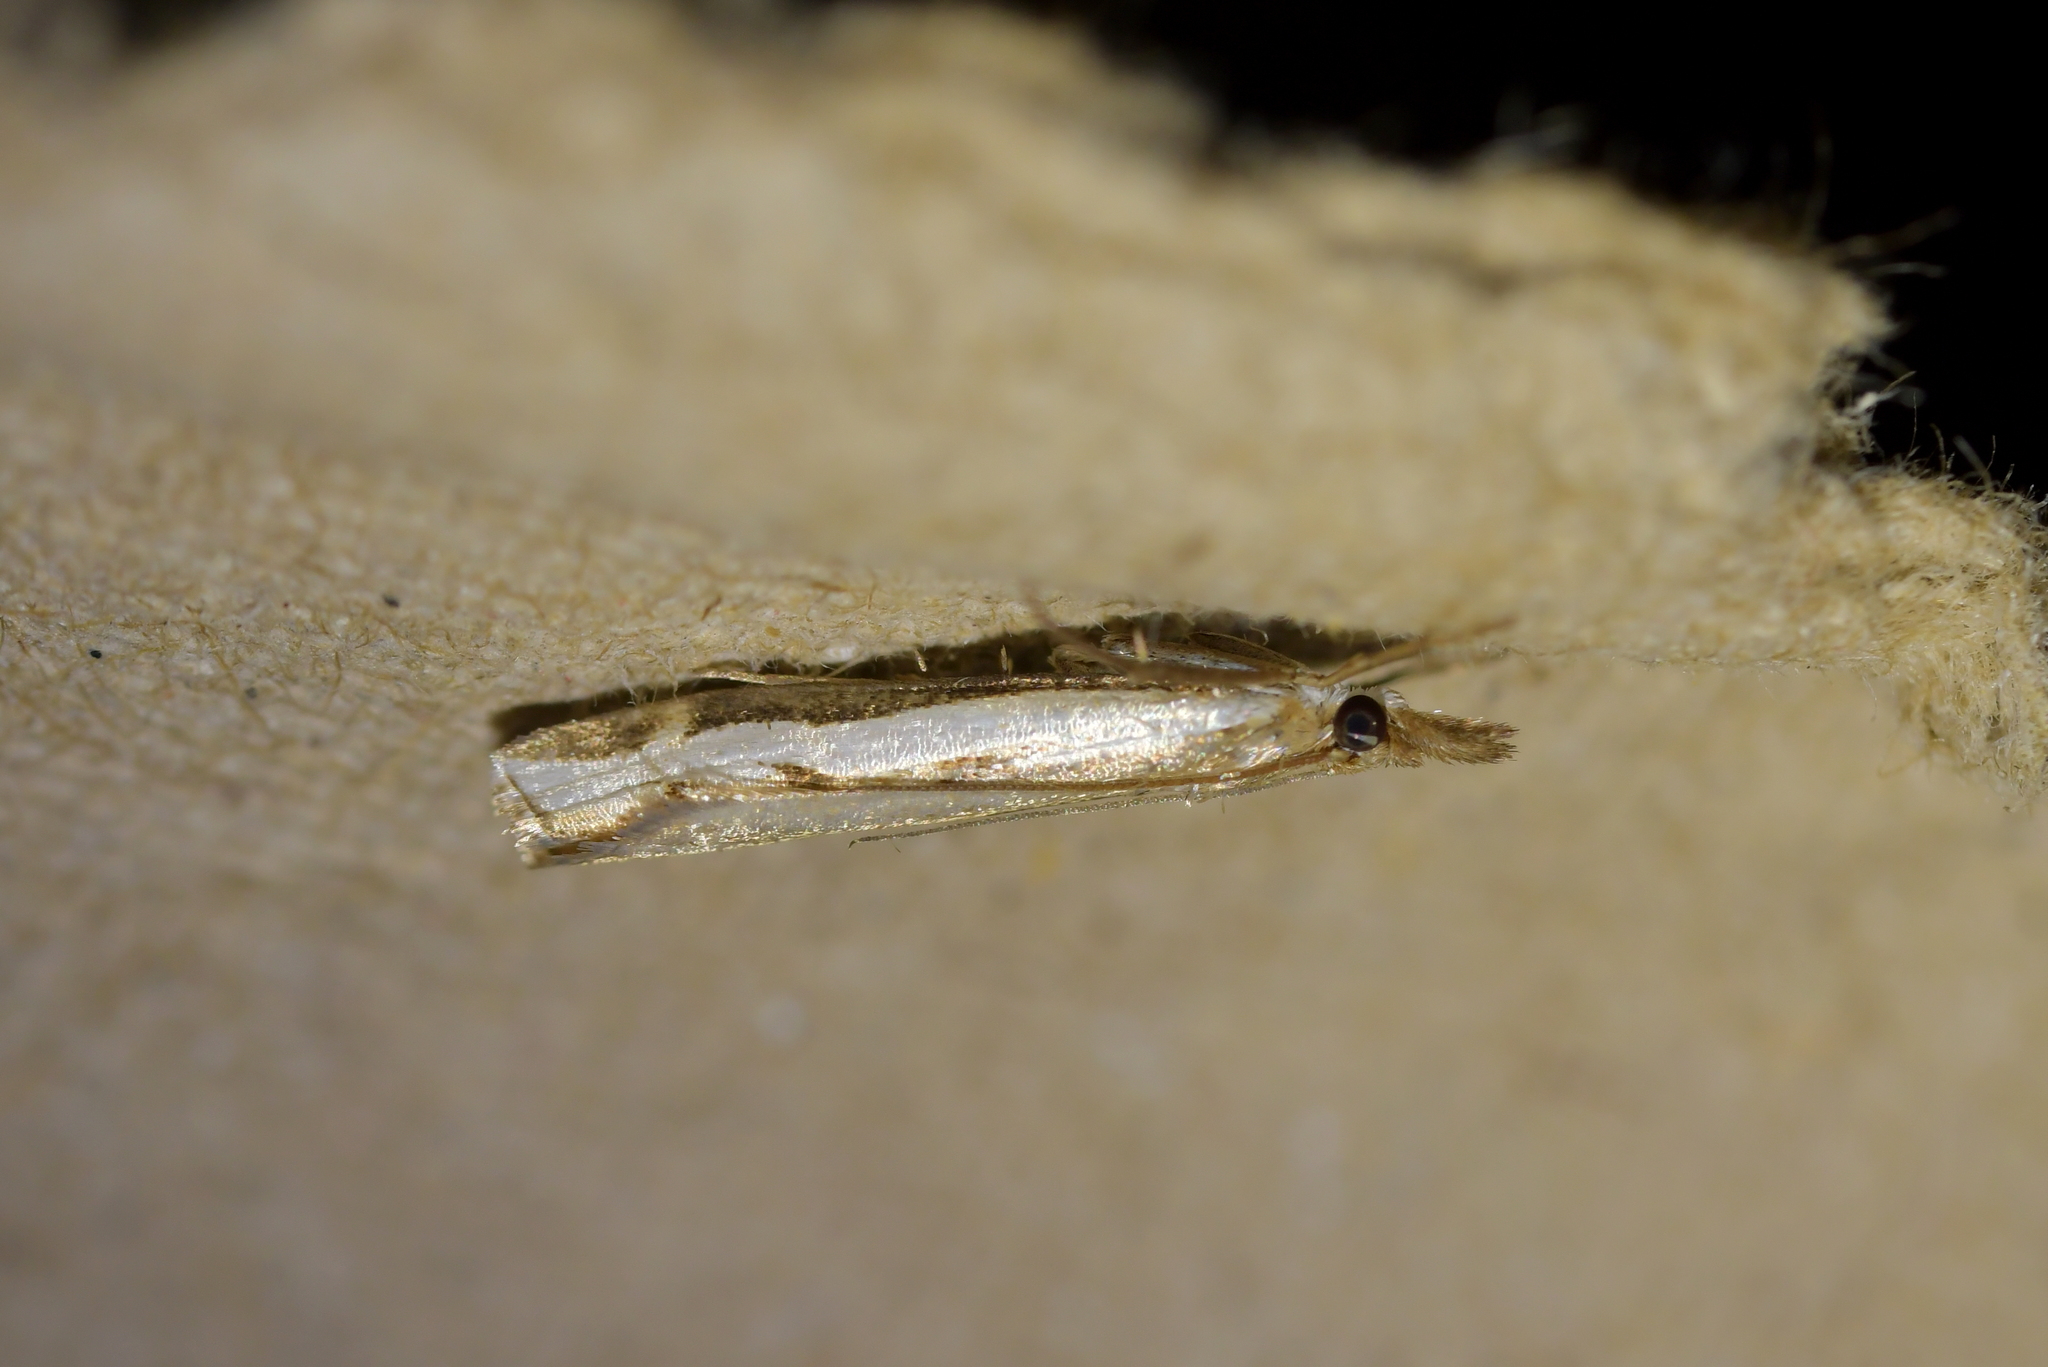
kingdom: Animalia
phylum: Arthropoda
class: Insecta
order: Lepidoptera
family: Crambidae
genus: Orocrambus
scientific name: Orocrambus flexuosellus
